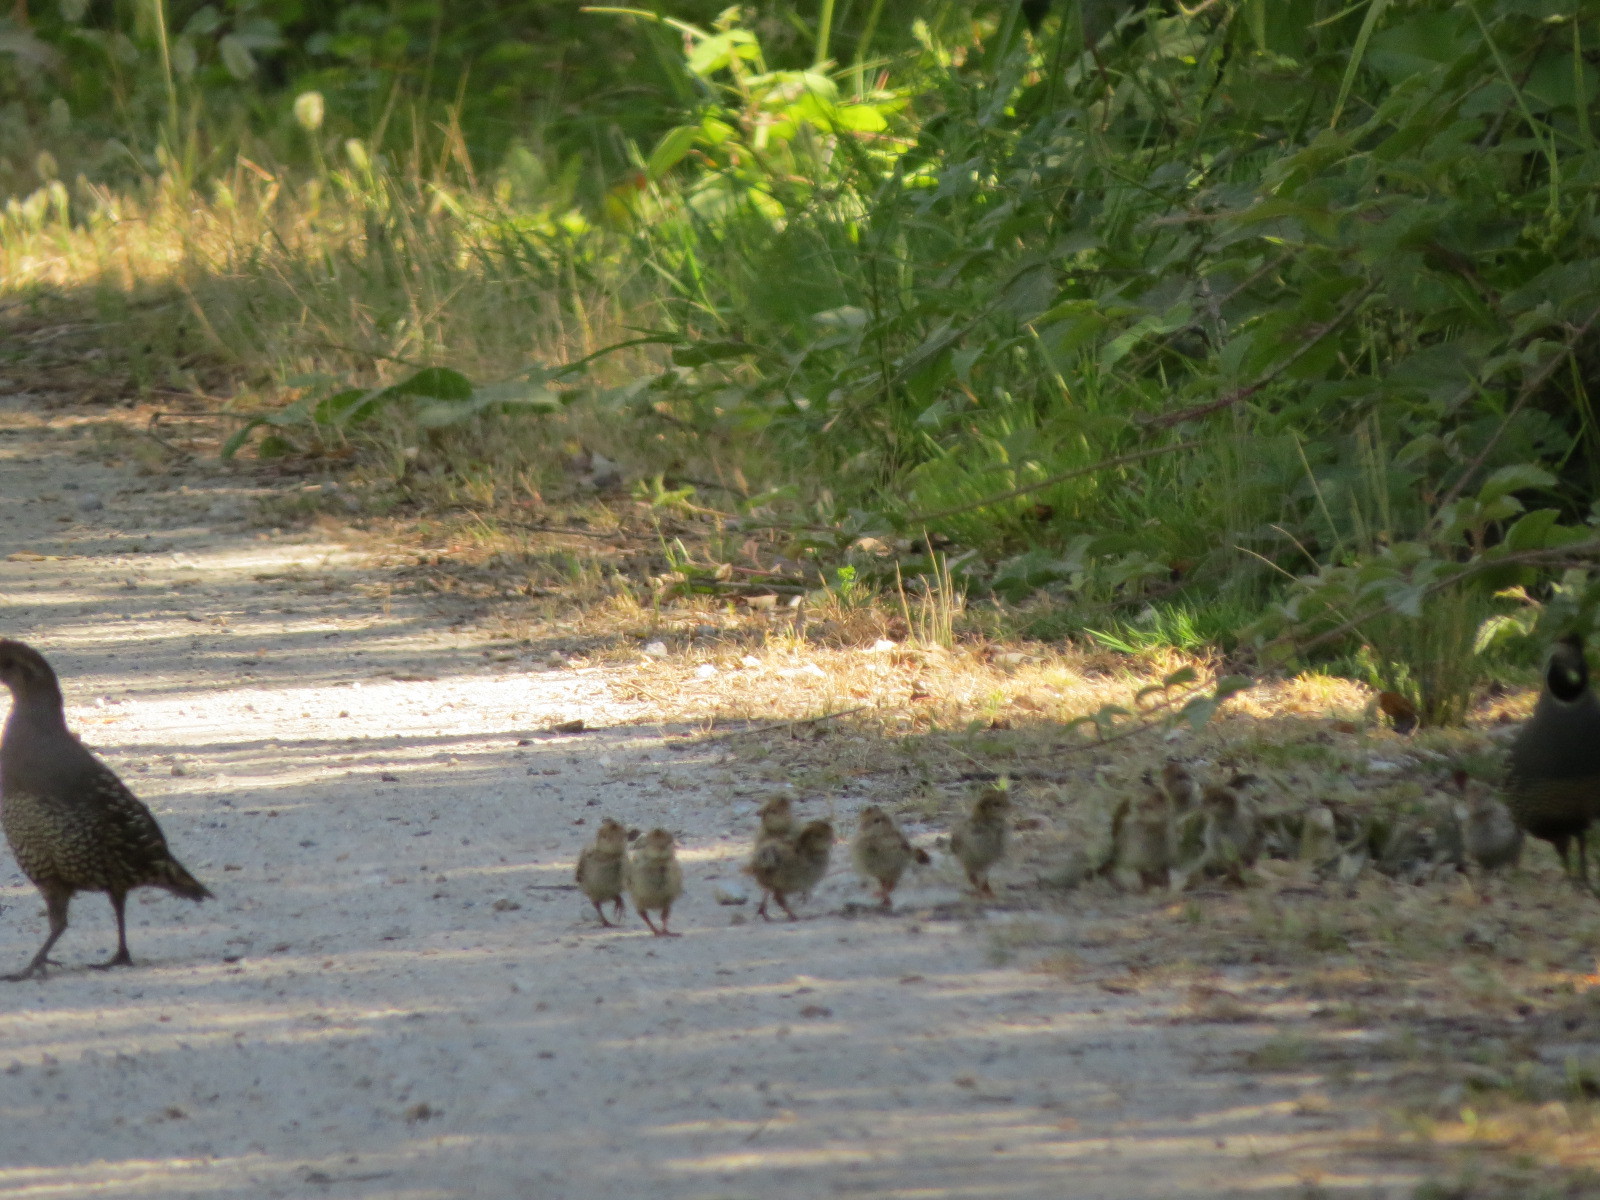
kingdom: Animalia
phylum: Chordata
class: Aves
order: Galliformes
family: Odontophoridae
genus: Callipepla
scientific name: Callipepla californica
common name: California quail
